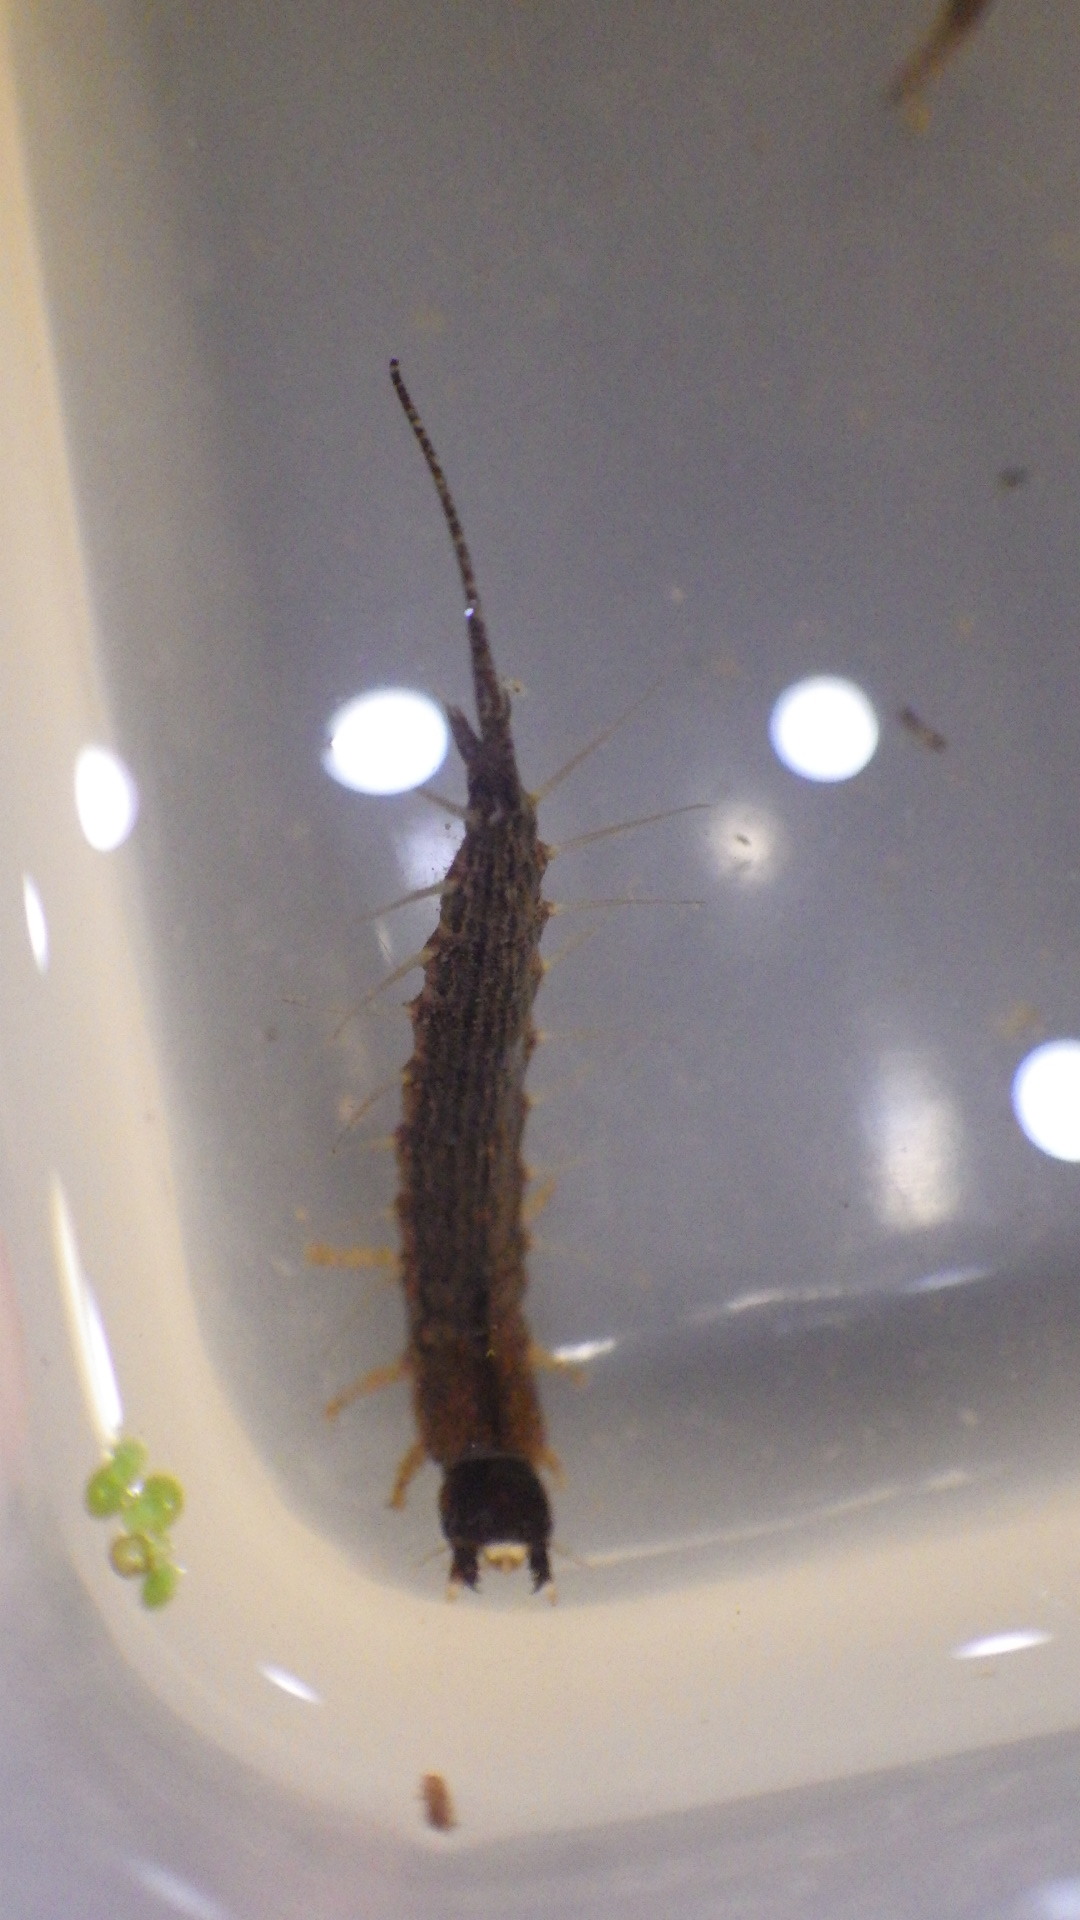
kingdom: Animalia
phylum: Arthropoda
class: Insecta
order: Megaloptera
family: Corydalidae
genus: Chauliodes
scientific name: Chauliodes rastricornis
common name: Spring fishfly
